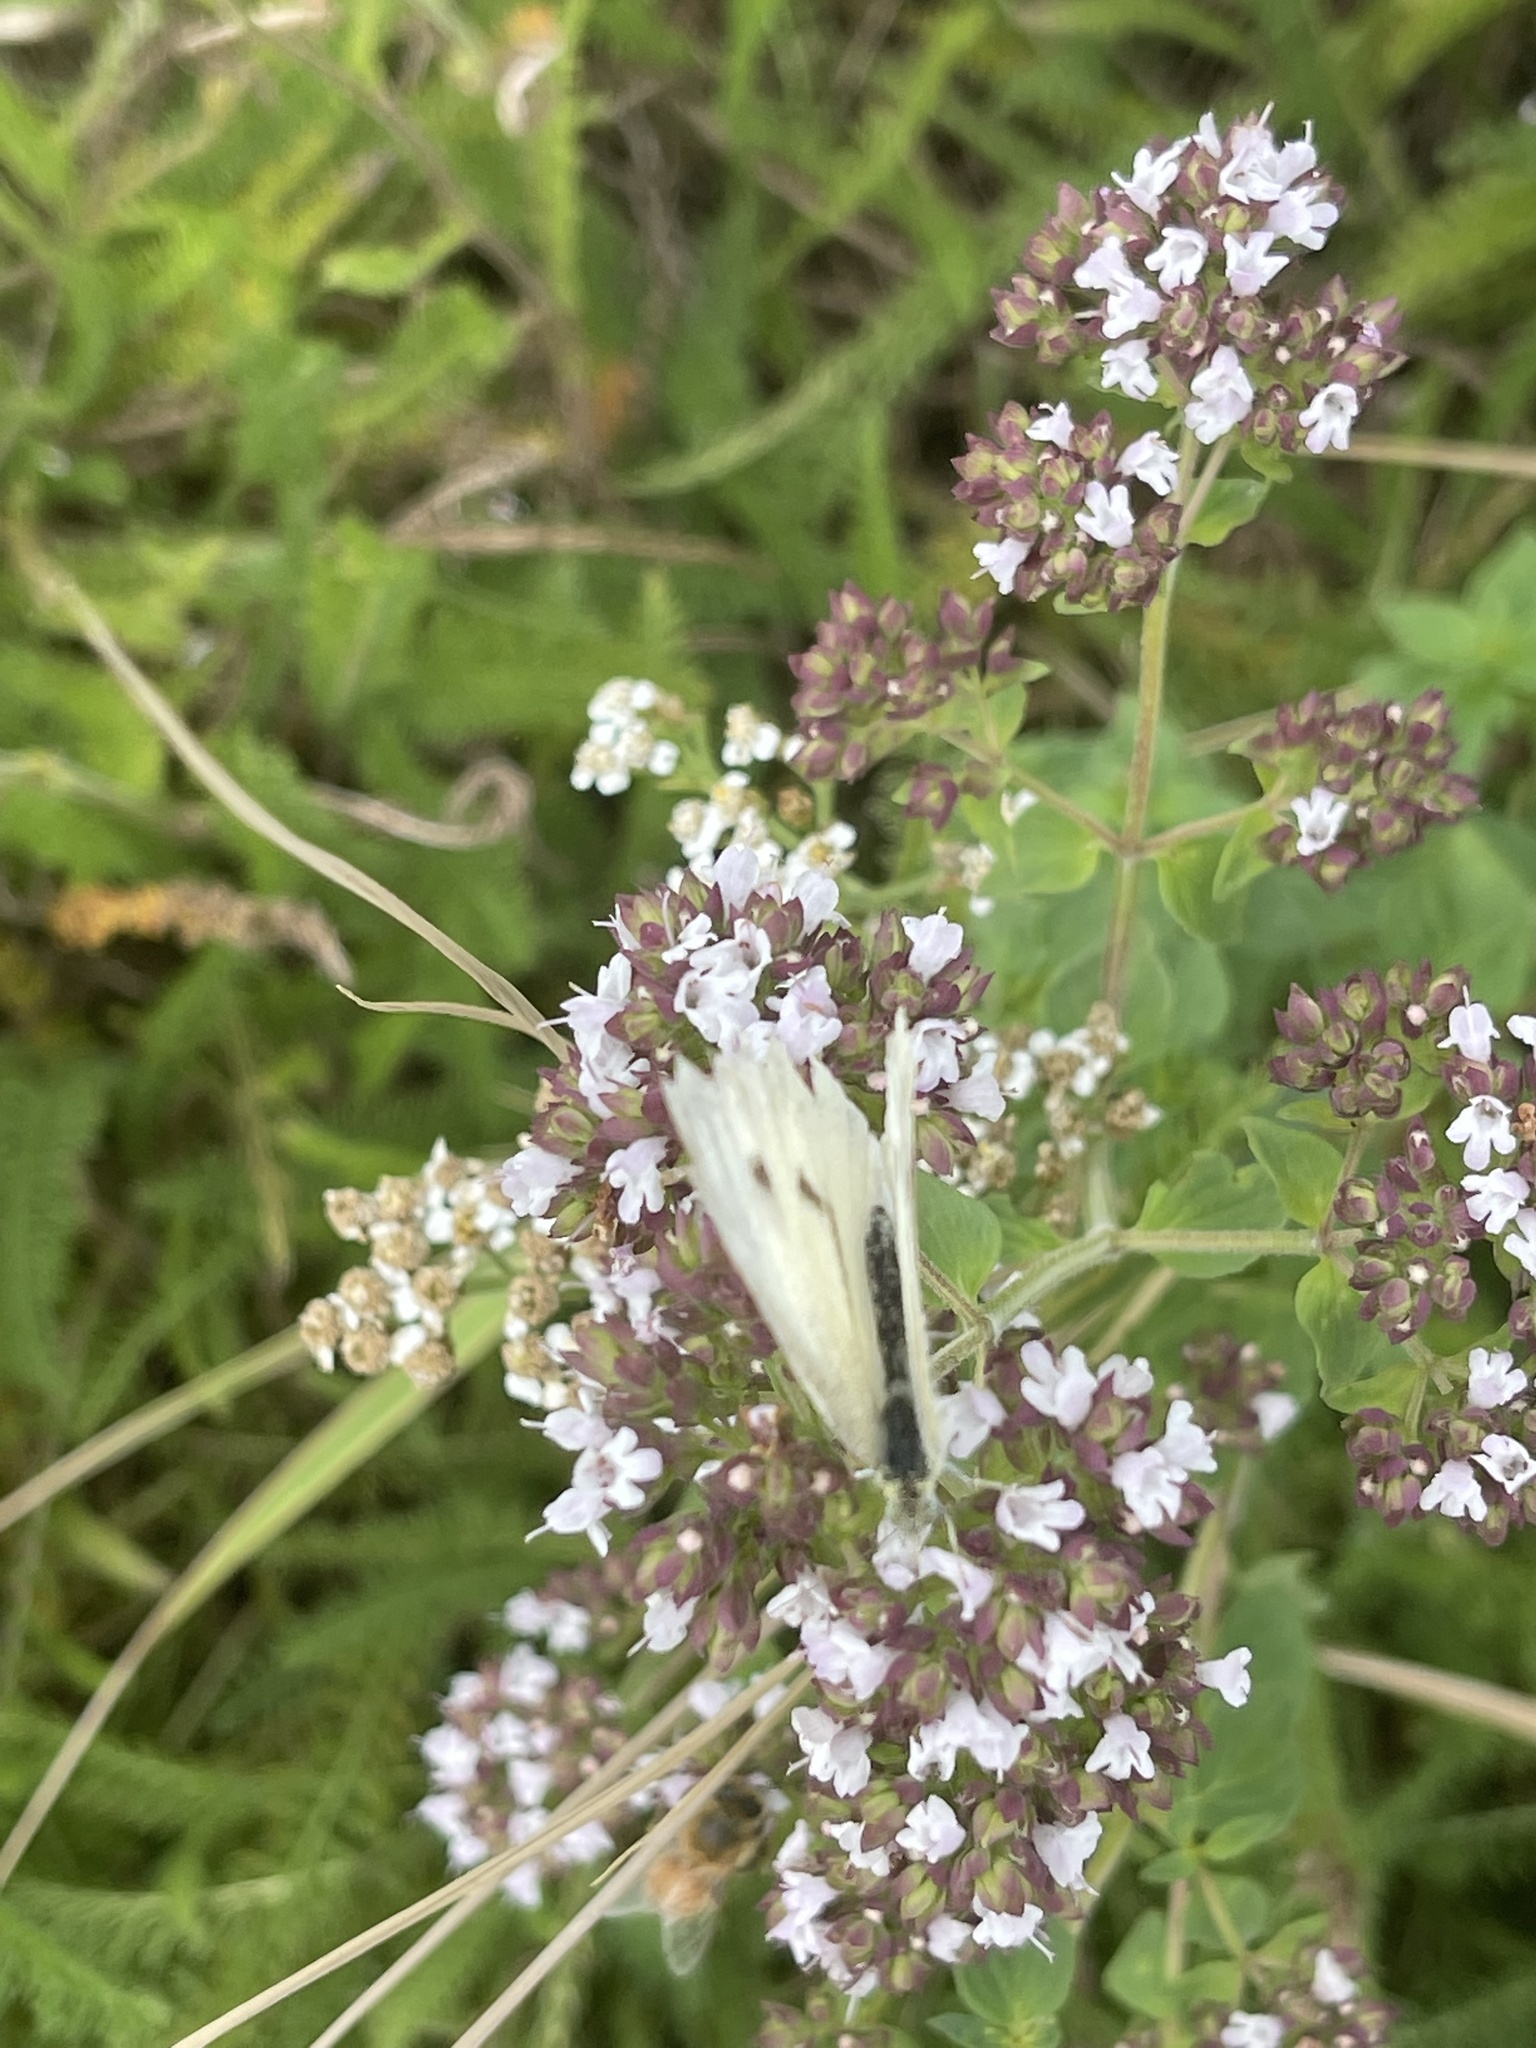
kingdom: Animalia
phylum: Arthropoda
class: Insecta
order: Lepidoptera
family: Pieridae
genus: Pieris
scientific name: Pieris rapae
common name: Small white
